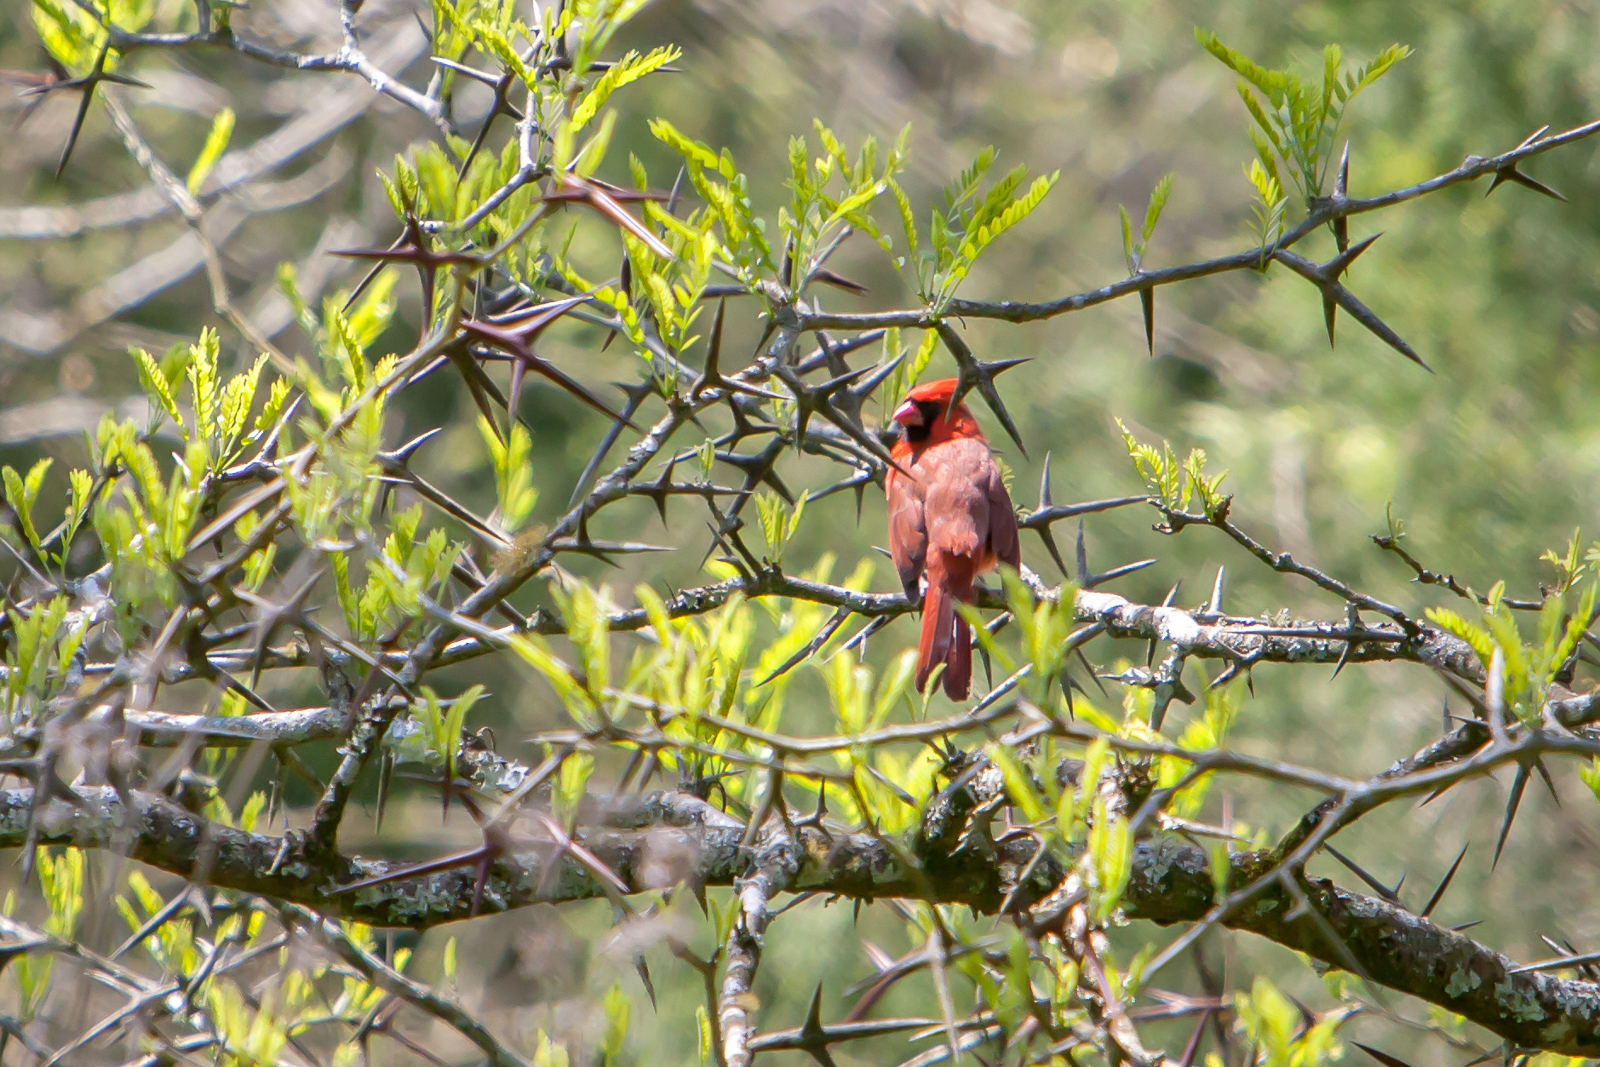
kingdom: Animalia
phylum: Chordata
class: Aves
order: Passeriformes
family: Cardinalidae
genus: Cardinalis
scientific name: Cardinalis cardinalis
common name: Northern cardinal
